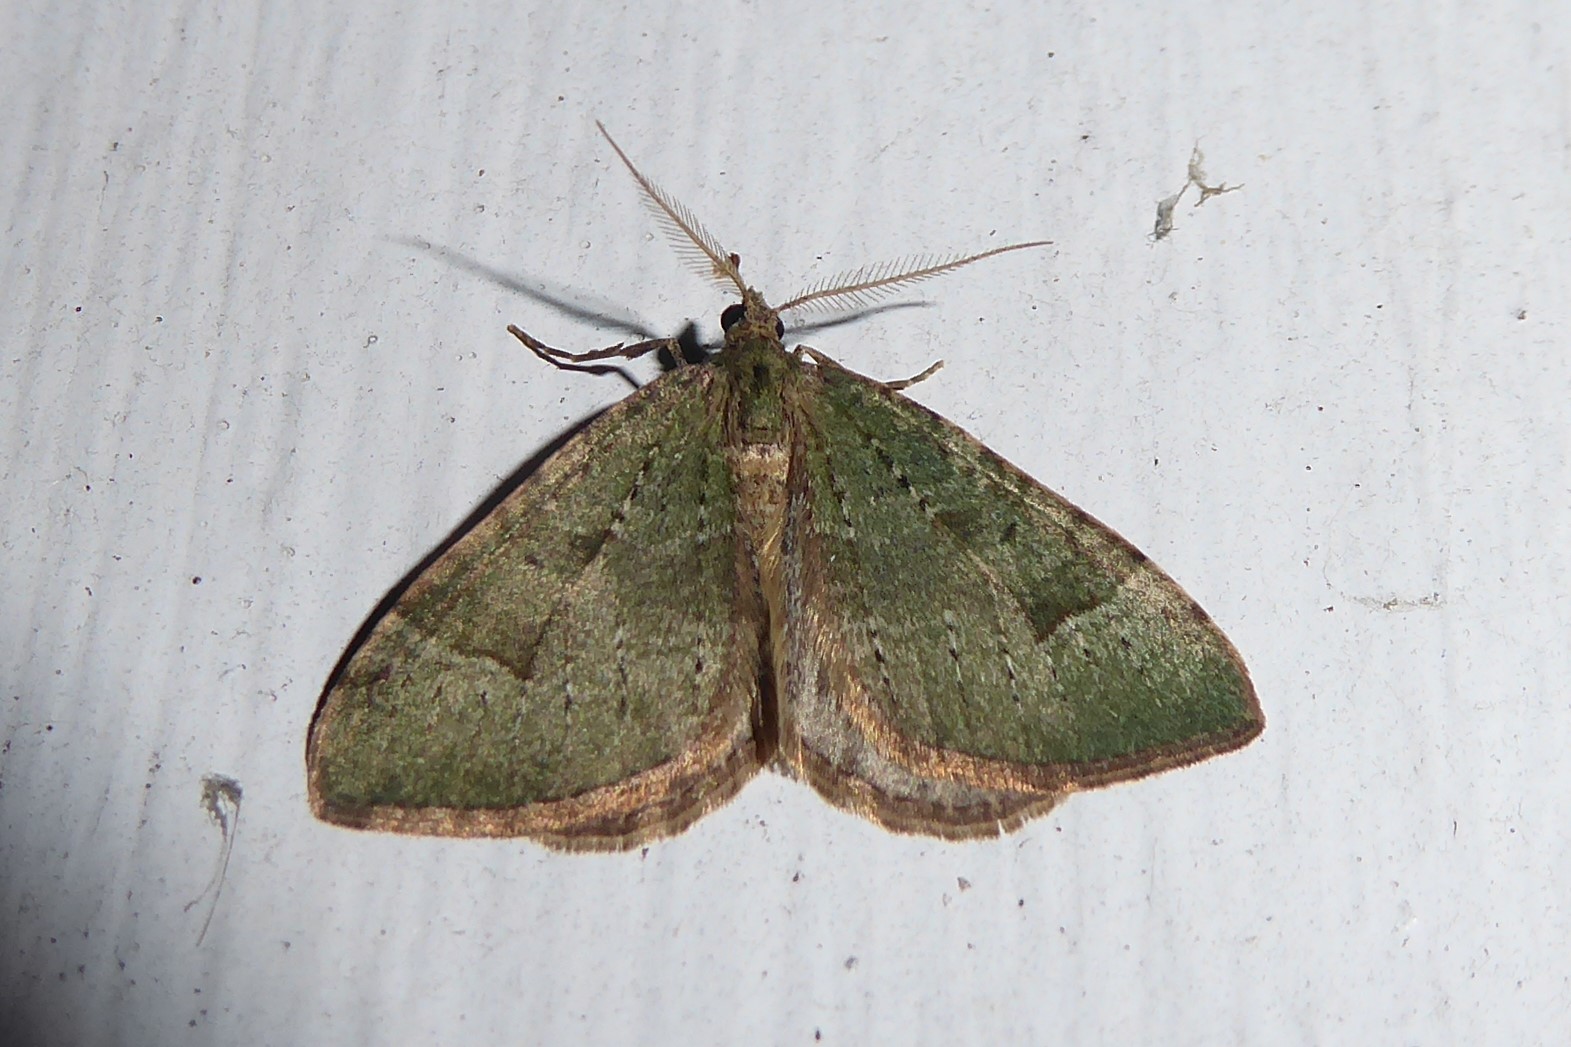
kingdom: Animalia
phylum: Arthropoda
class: Insecta
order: Lepidoptera
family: Geometridae
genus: Epyaxa
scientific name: Epyaxa rosearia
